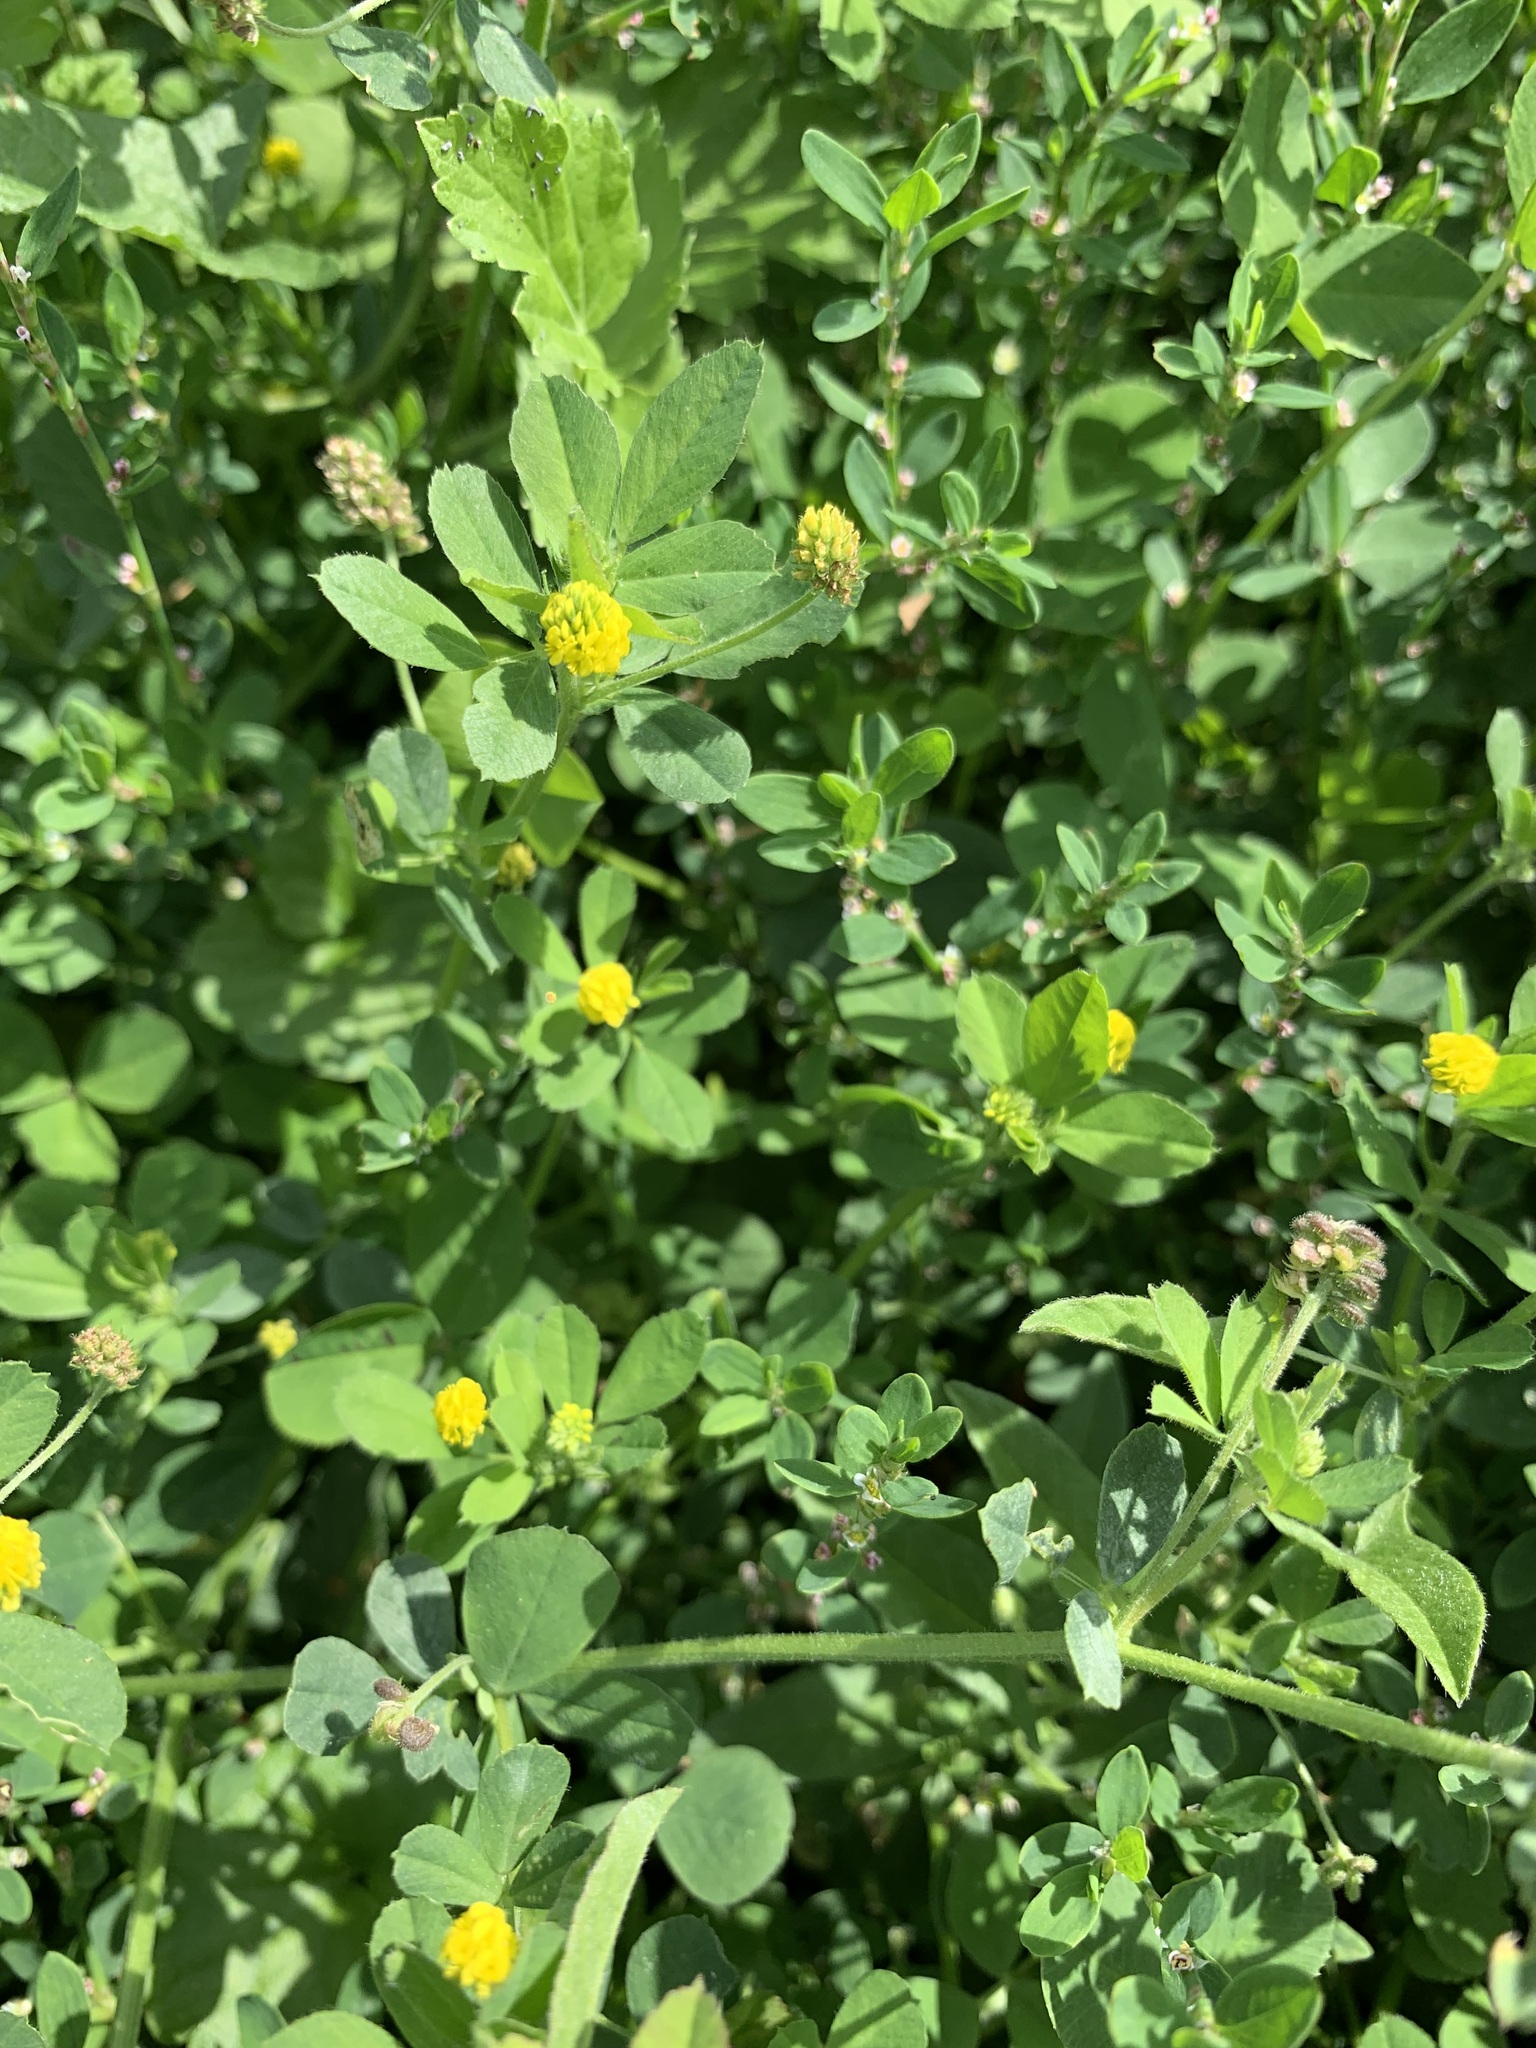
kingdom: Plantae
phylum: Tracheophyta
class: Magnoliopsida
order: Fabales
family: Fabaceae
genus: Medicago
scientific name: Medicago lupulina
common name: Black medick
